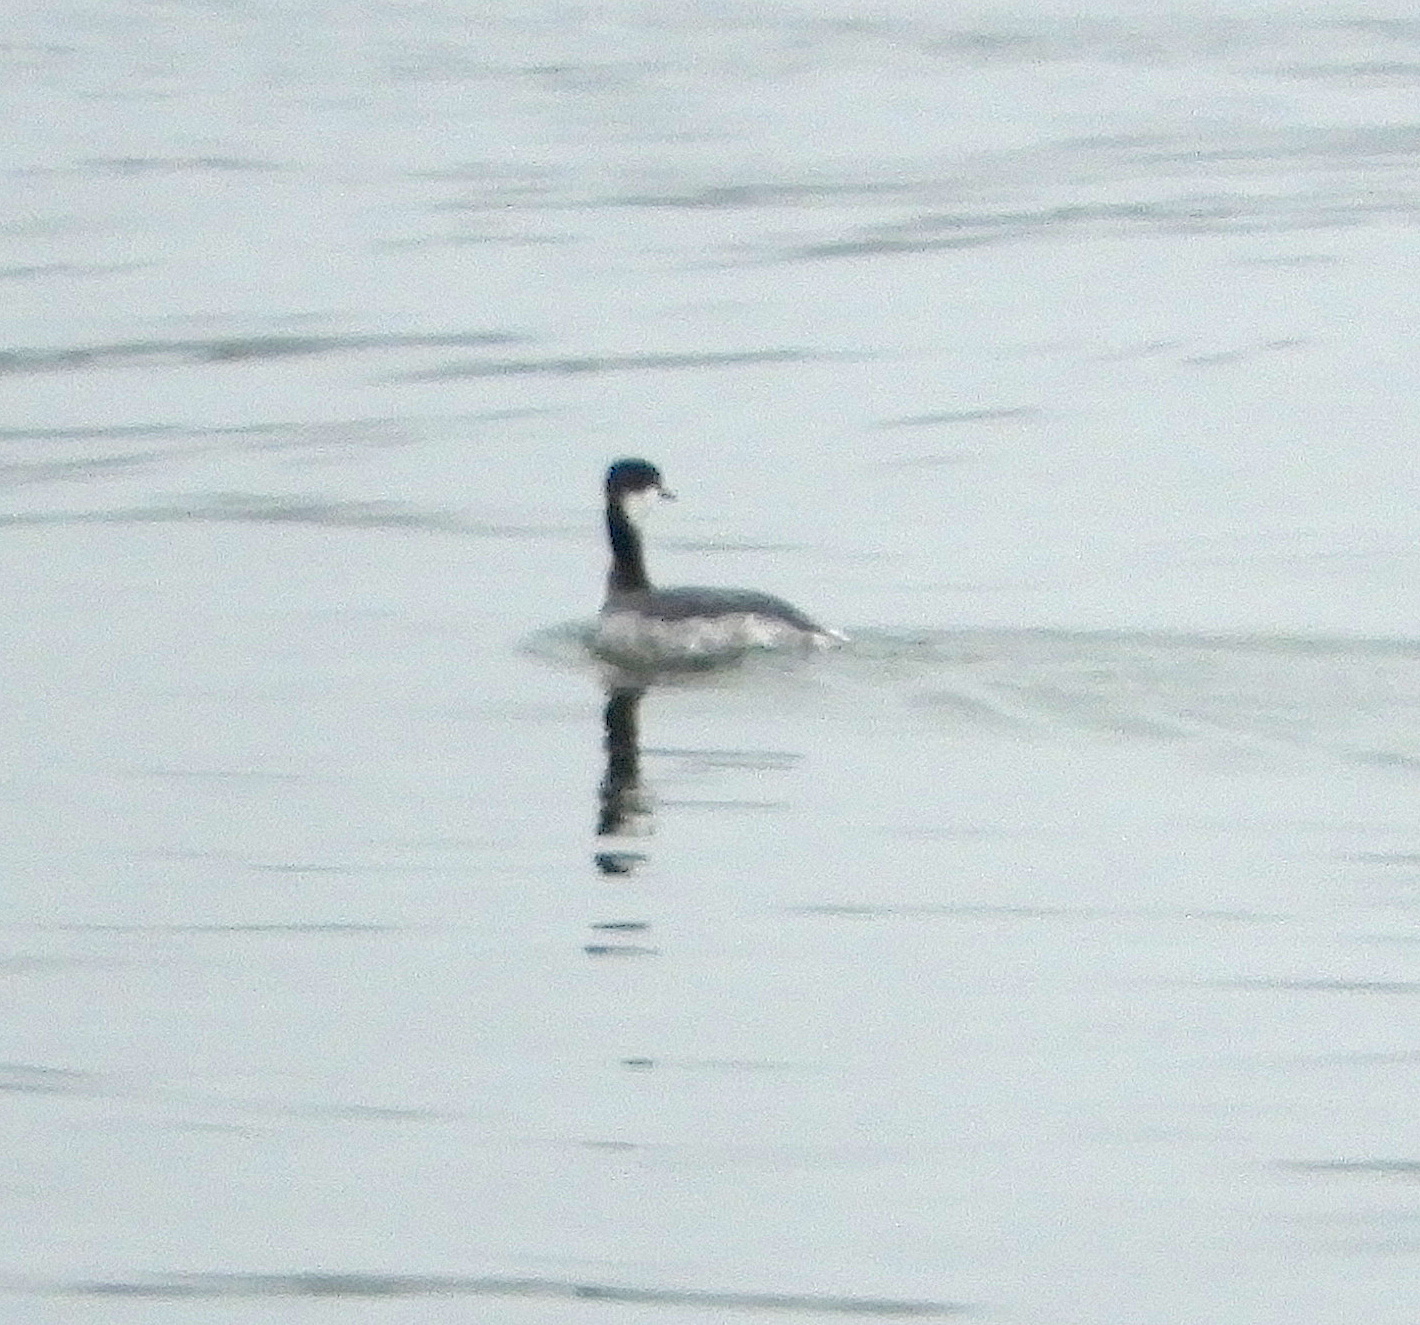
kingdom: Animalia
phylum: Chordata
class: Aves
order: Podicipediformes
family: Podicipedidae
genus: Podiceps
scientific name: Podiceps auritus
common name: Horned grebe
